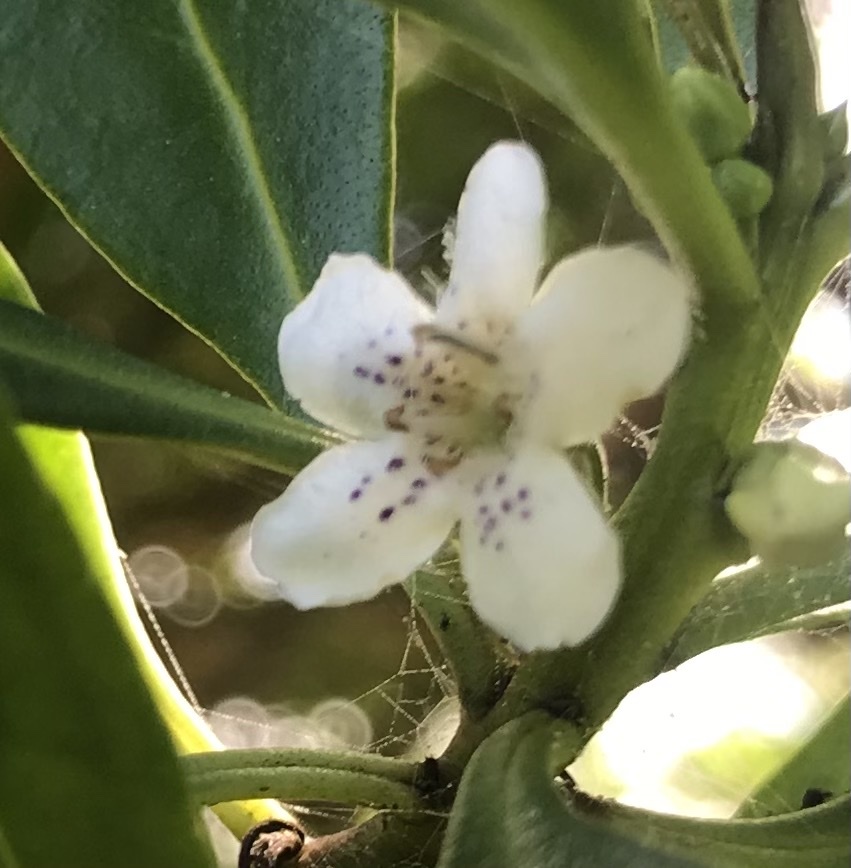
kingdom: Plantae
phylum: Tracheophyta
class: Magnoliopsida
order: Lamiales
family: Scrophulariaceae
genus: Myoporum
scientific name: Myoporum insulare
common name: Common boobialla
